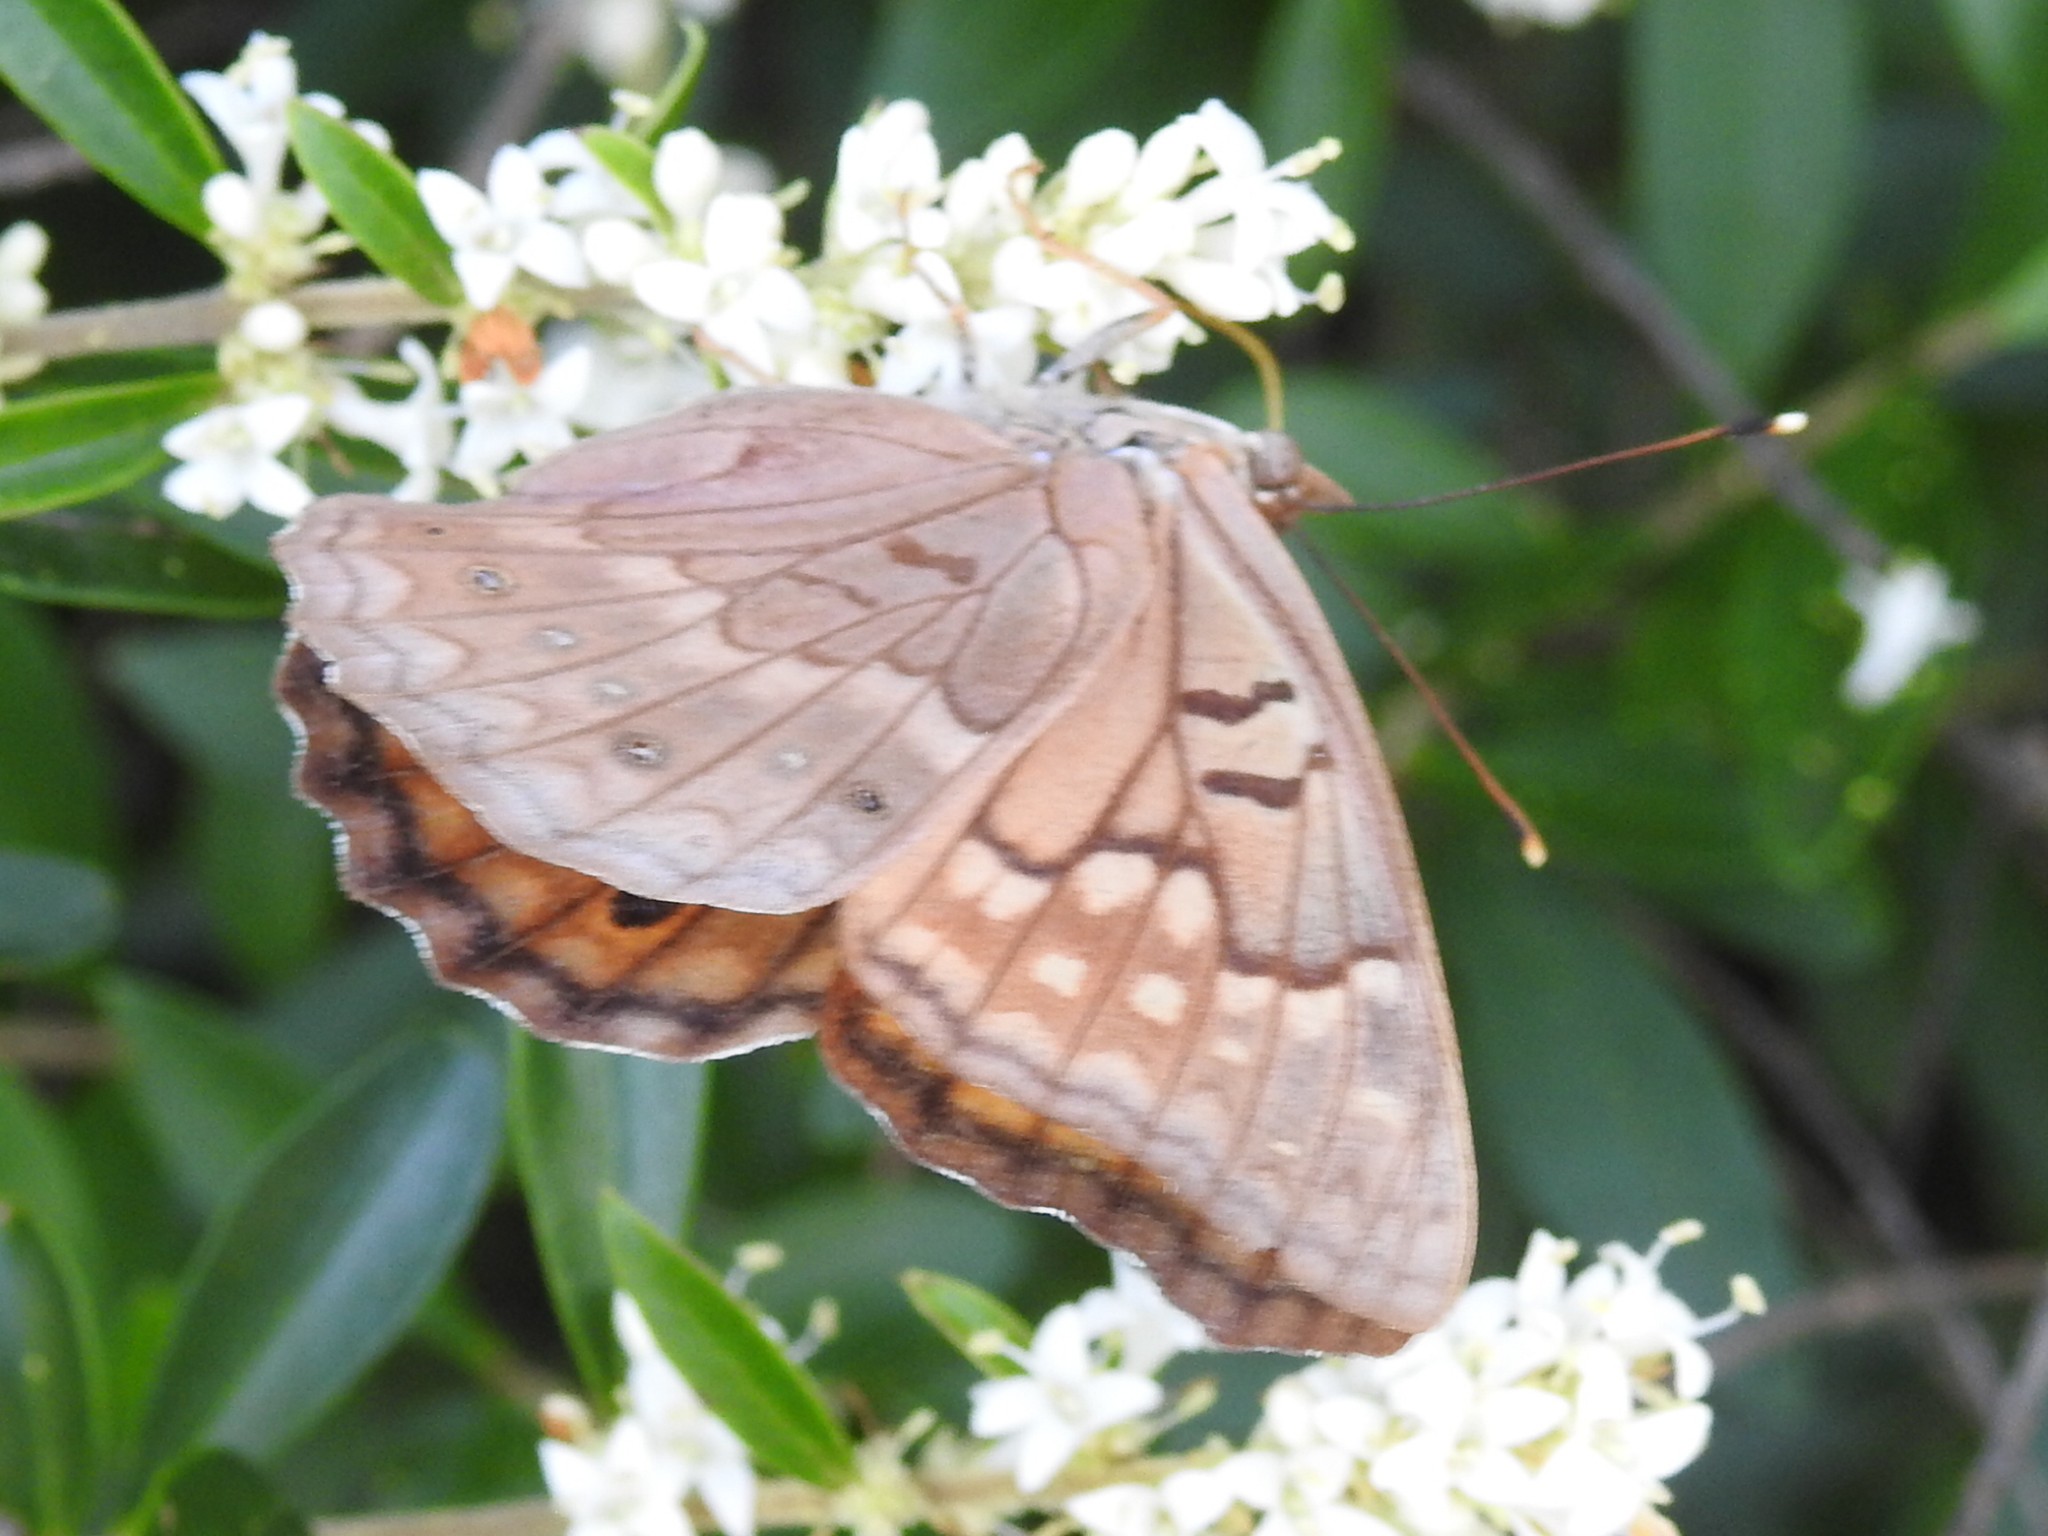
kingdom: Animalia
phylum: Arthropoda
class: Insecta
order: Lepidoptera
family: Nymphalidae
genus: Asterocampa
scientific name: Asterocampa clyton
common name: Tawny emperor
